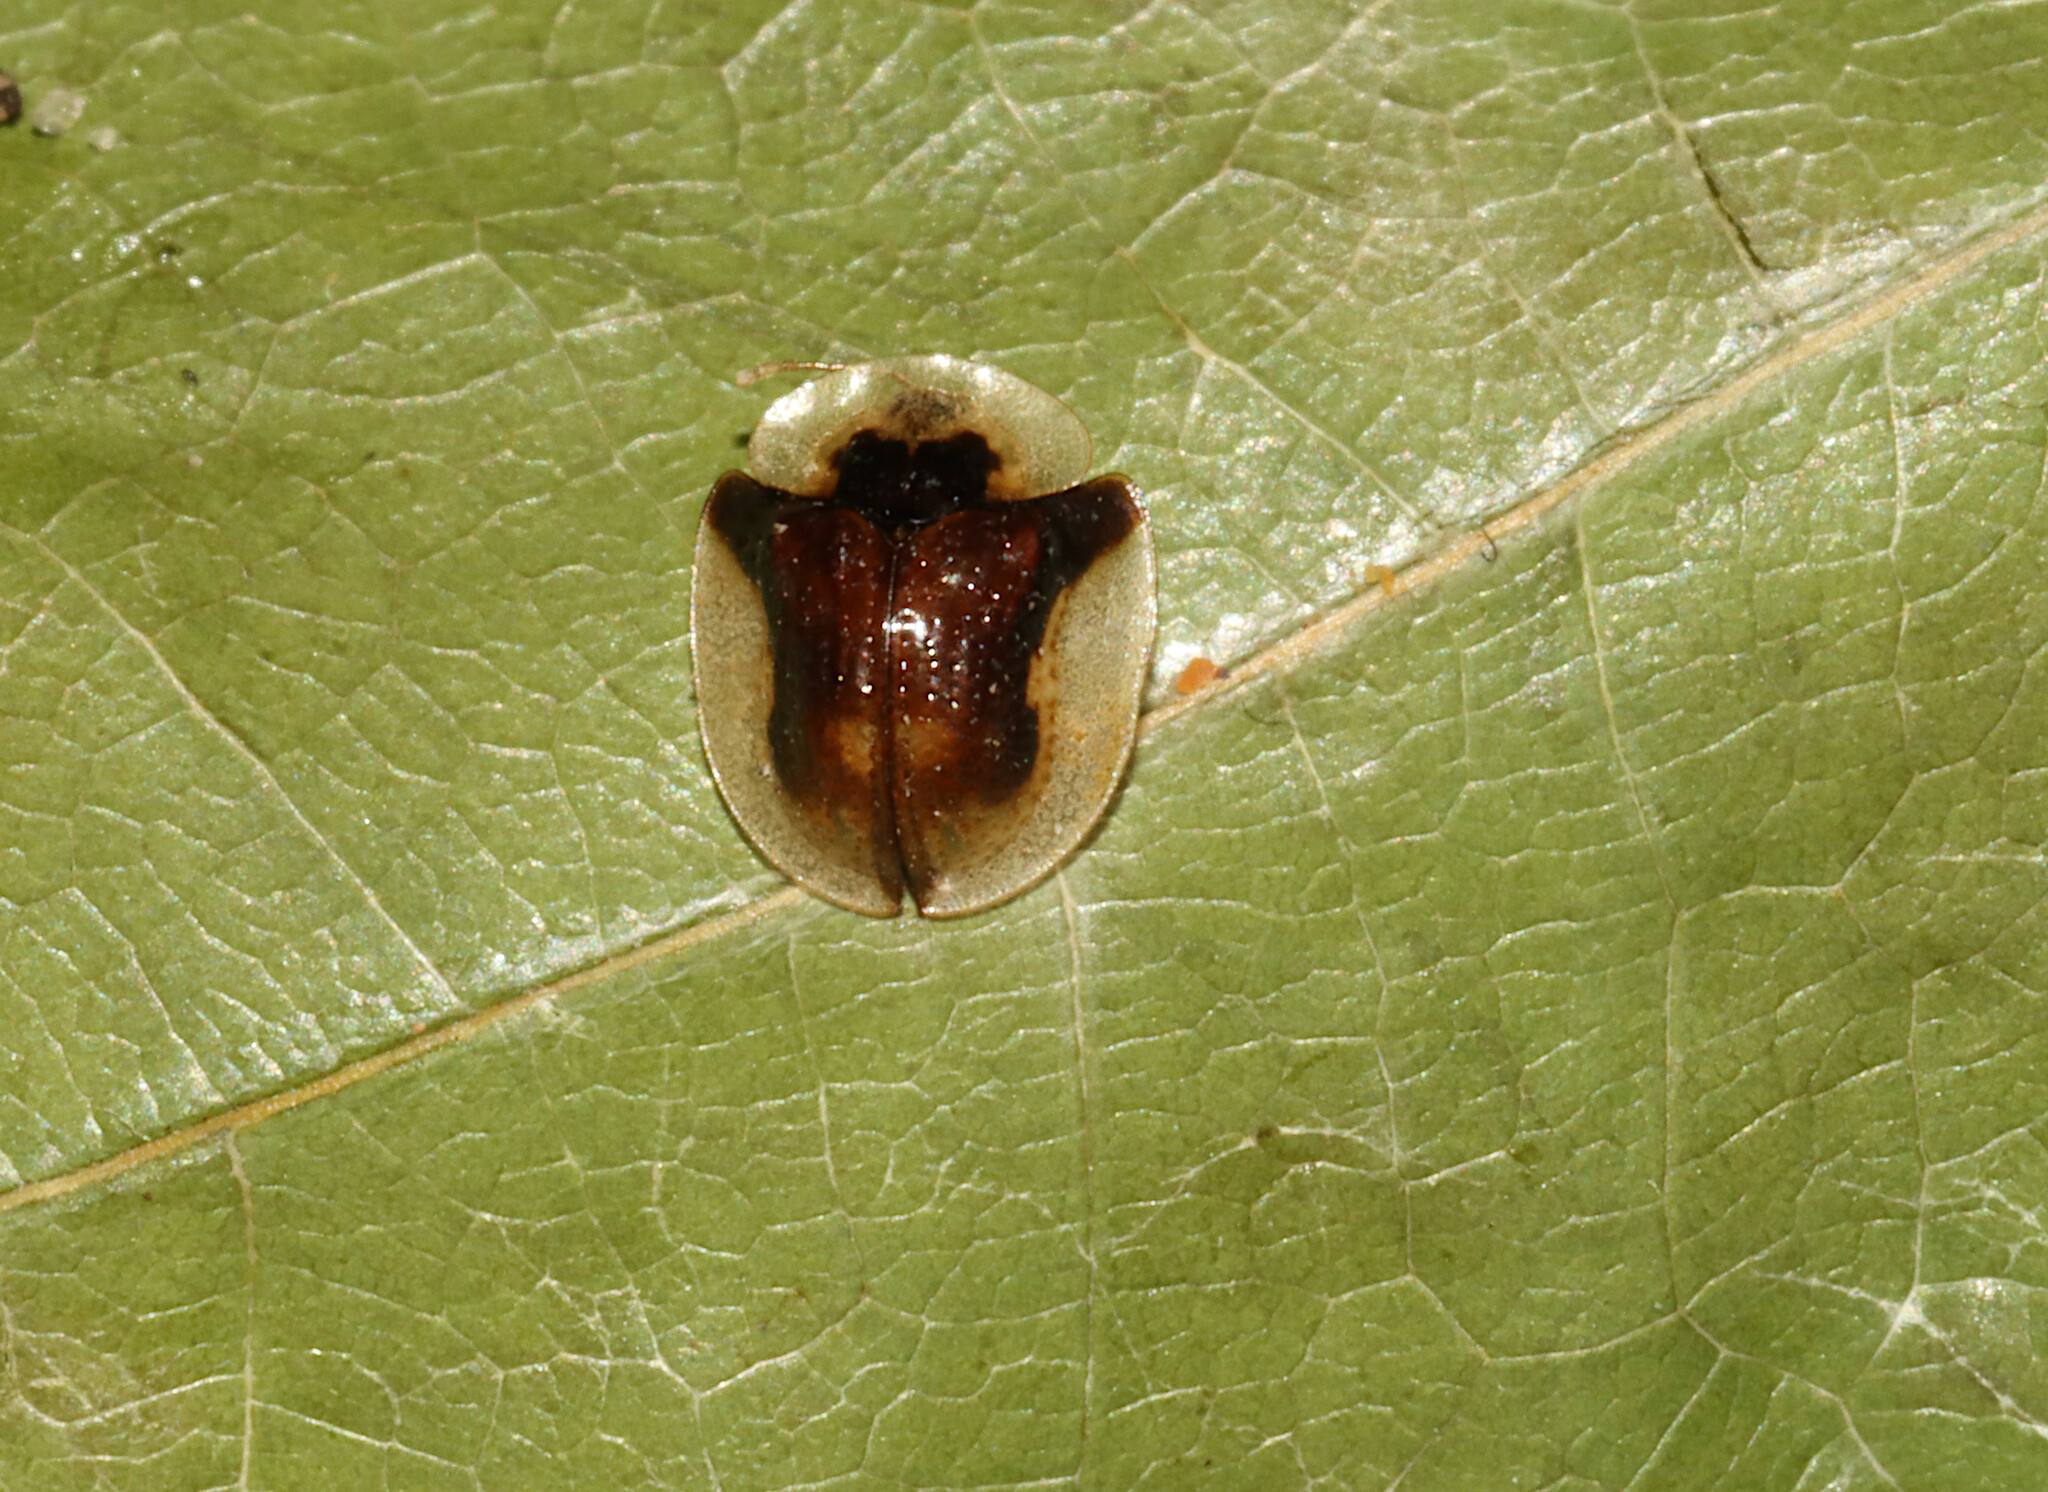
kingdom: Animalia
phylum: Arthropoda
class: Insecta
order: Coleoptera
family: Chrysomelidae
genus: Deloyala
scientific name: Deloyala guttata
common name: Mottled tortoise beetle
